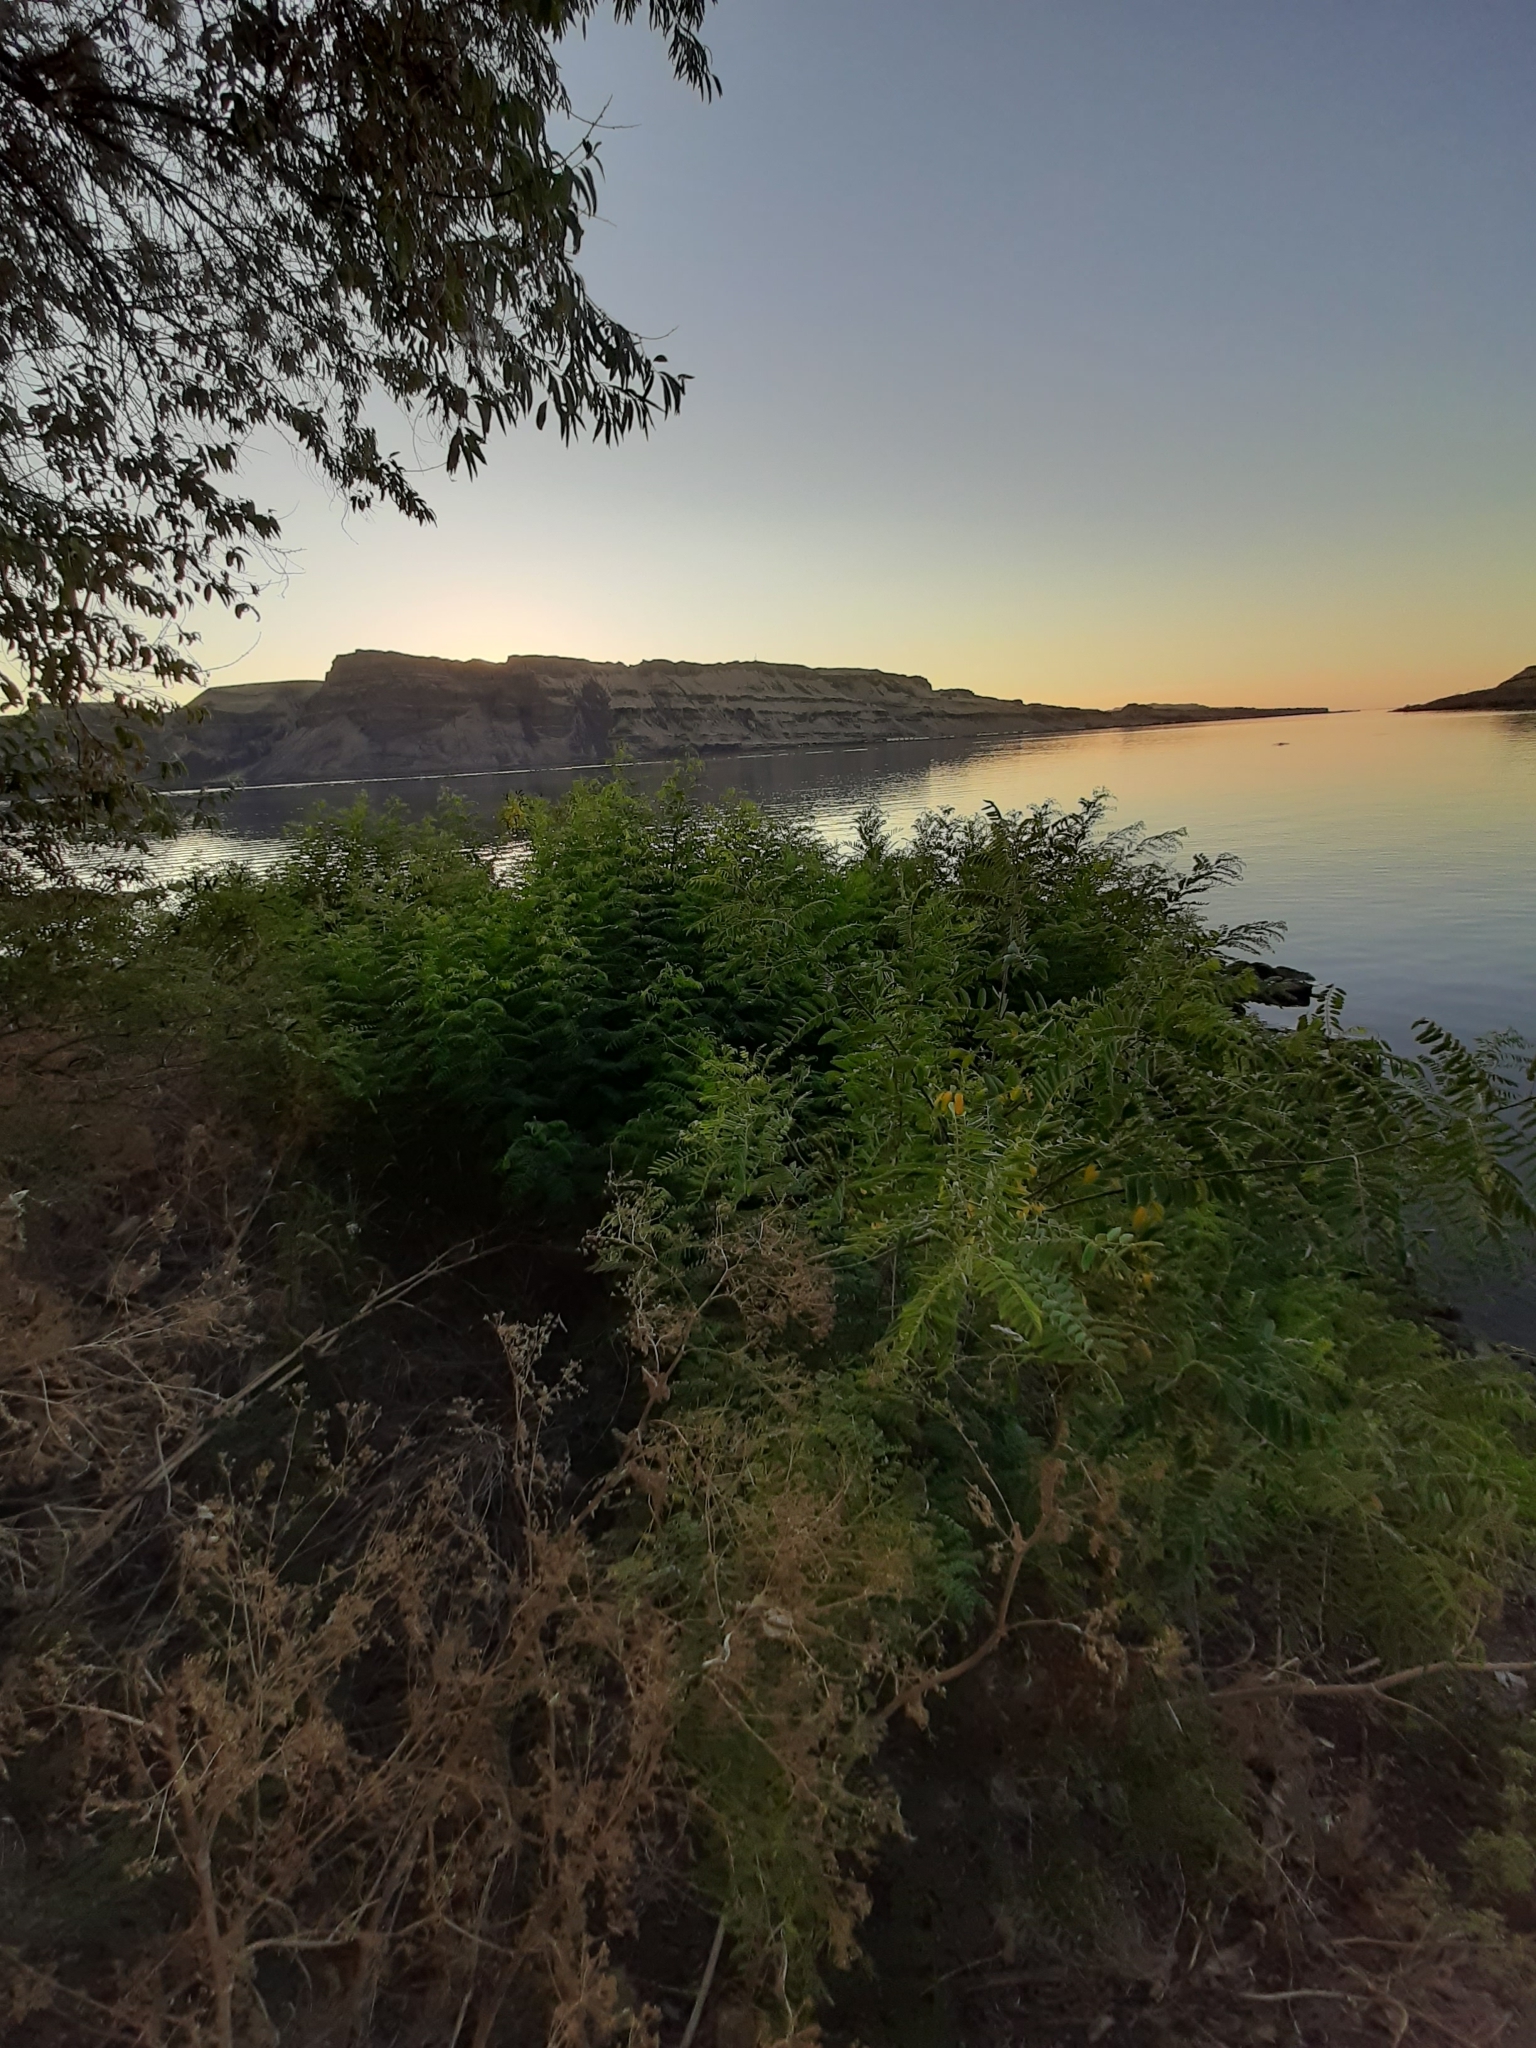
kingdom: Plantae
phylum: Tracheophyta
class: Magnoliopsida
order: Fabales
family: Fabaceae
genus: Amorpha
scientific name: Amorpha fruticosa
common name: False indigo
